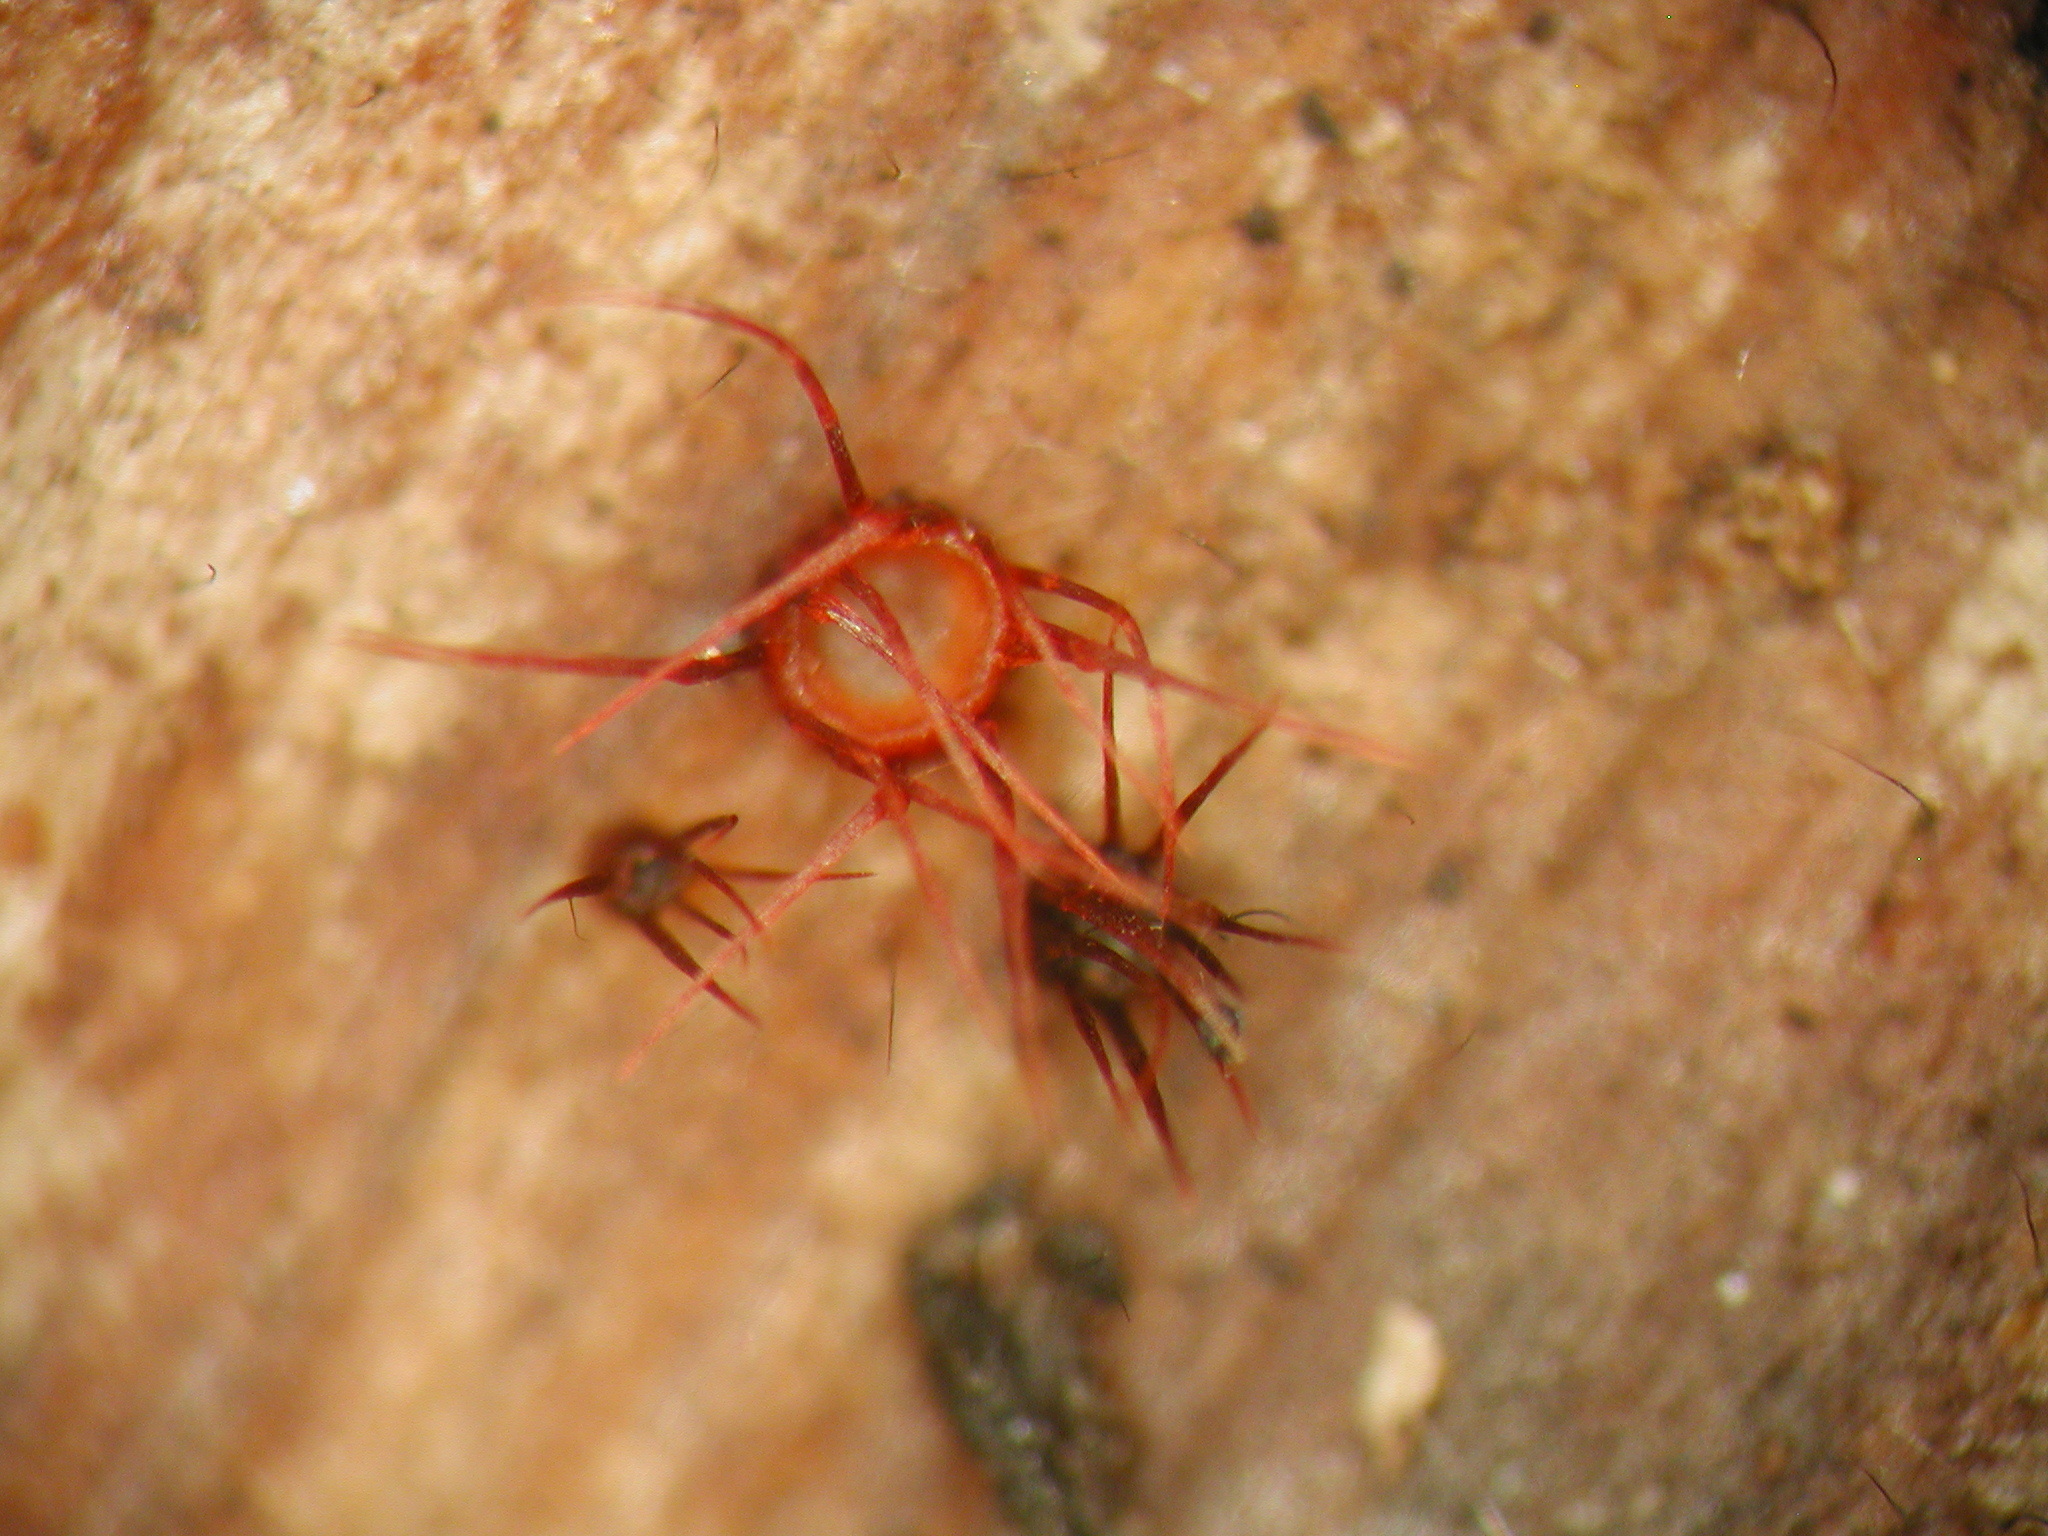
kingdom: Fungi
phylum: Ascomycota
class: Leotiomycetes
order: Helotiales
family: Helotiaceae
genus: Hispidula
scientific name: Hispidula rubra
